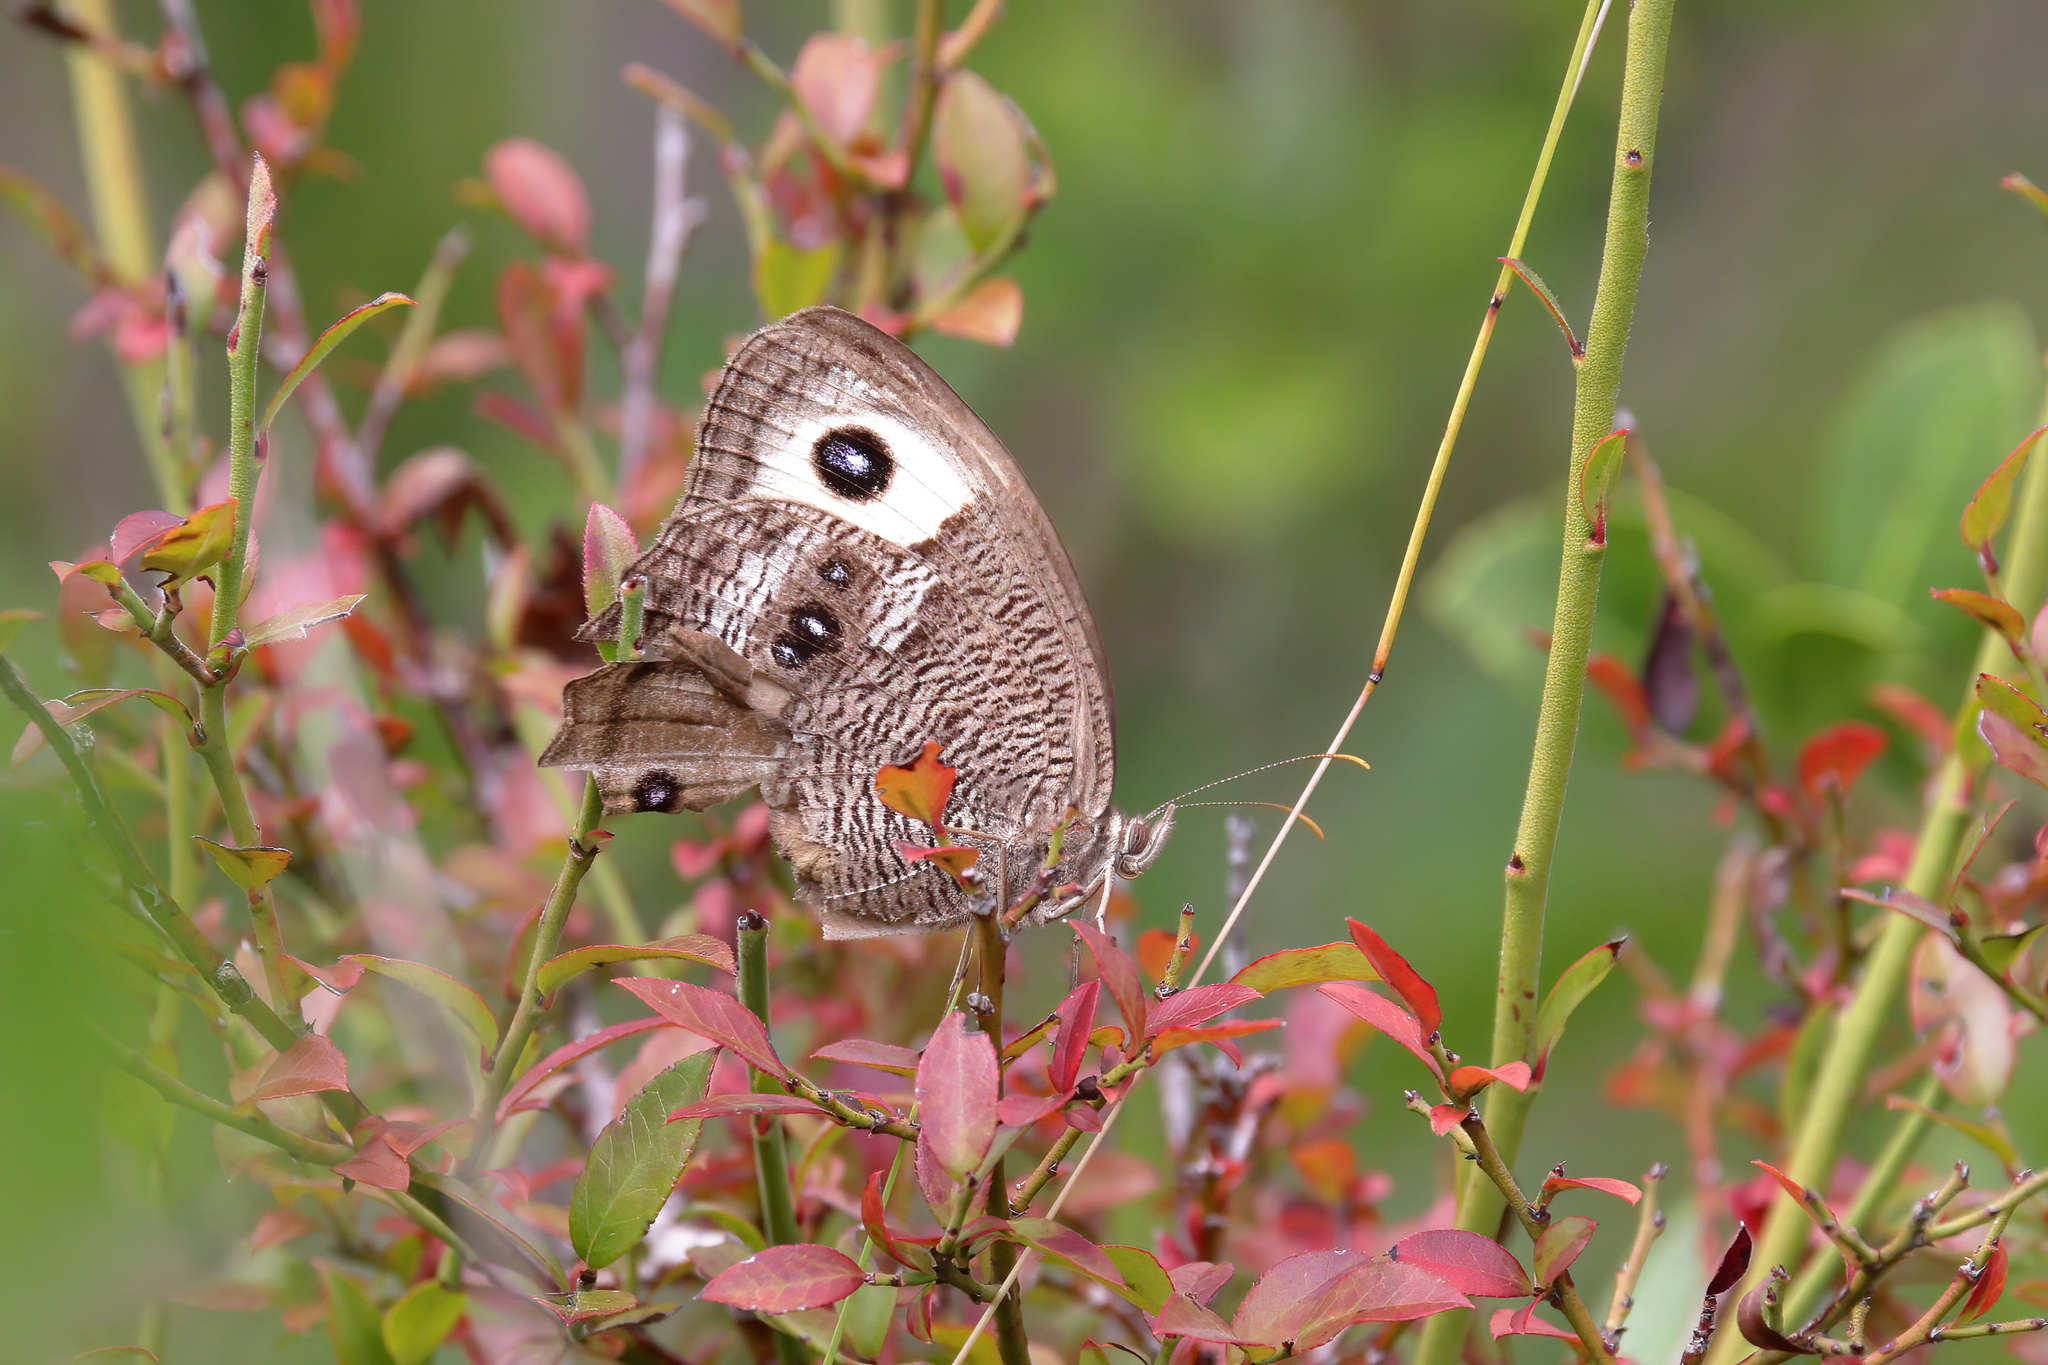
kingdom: Animalia
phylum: Arthropoda
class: Insecta
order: Lepidoptera
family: Nymphalidae
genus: Cercyonis
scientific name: Cercyonis pegala
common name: Common wood-nymph
